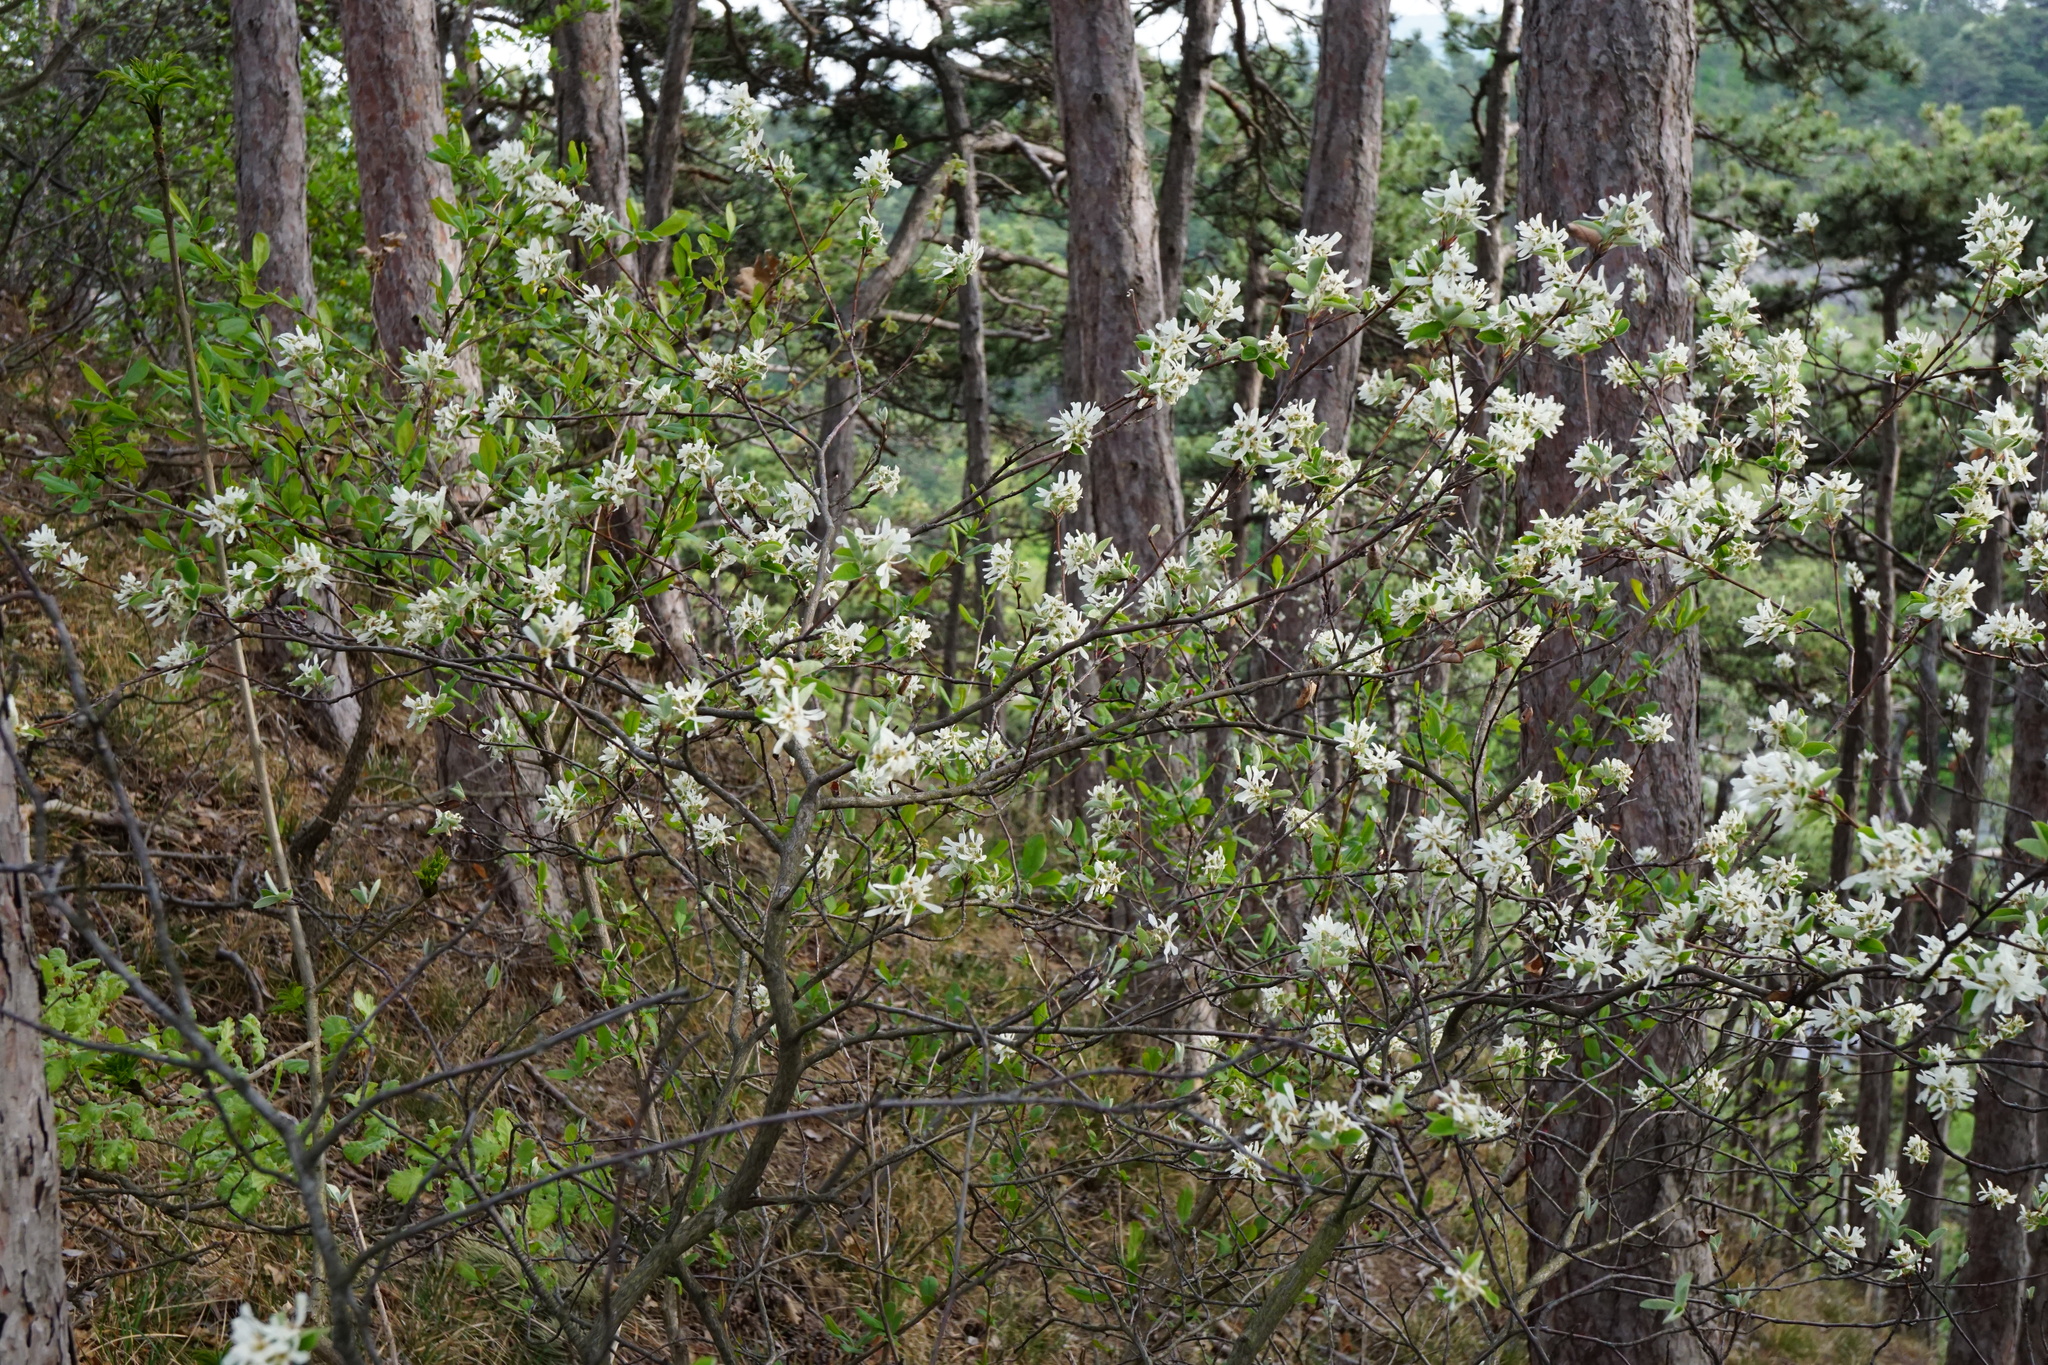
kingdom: Plantae
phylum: Tracheophyta
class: Magnoliopsida
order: Rosales
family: Rosaceae
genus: Amelanchier
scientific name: Amelanchier ovalis
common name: Serviceberry
